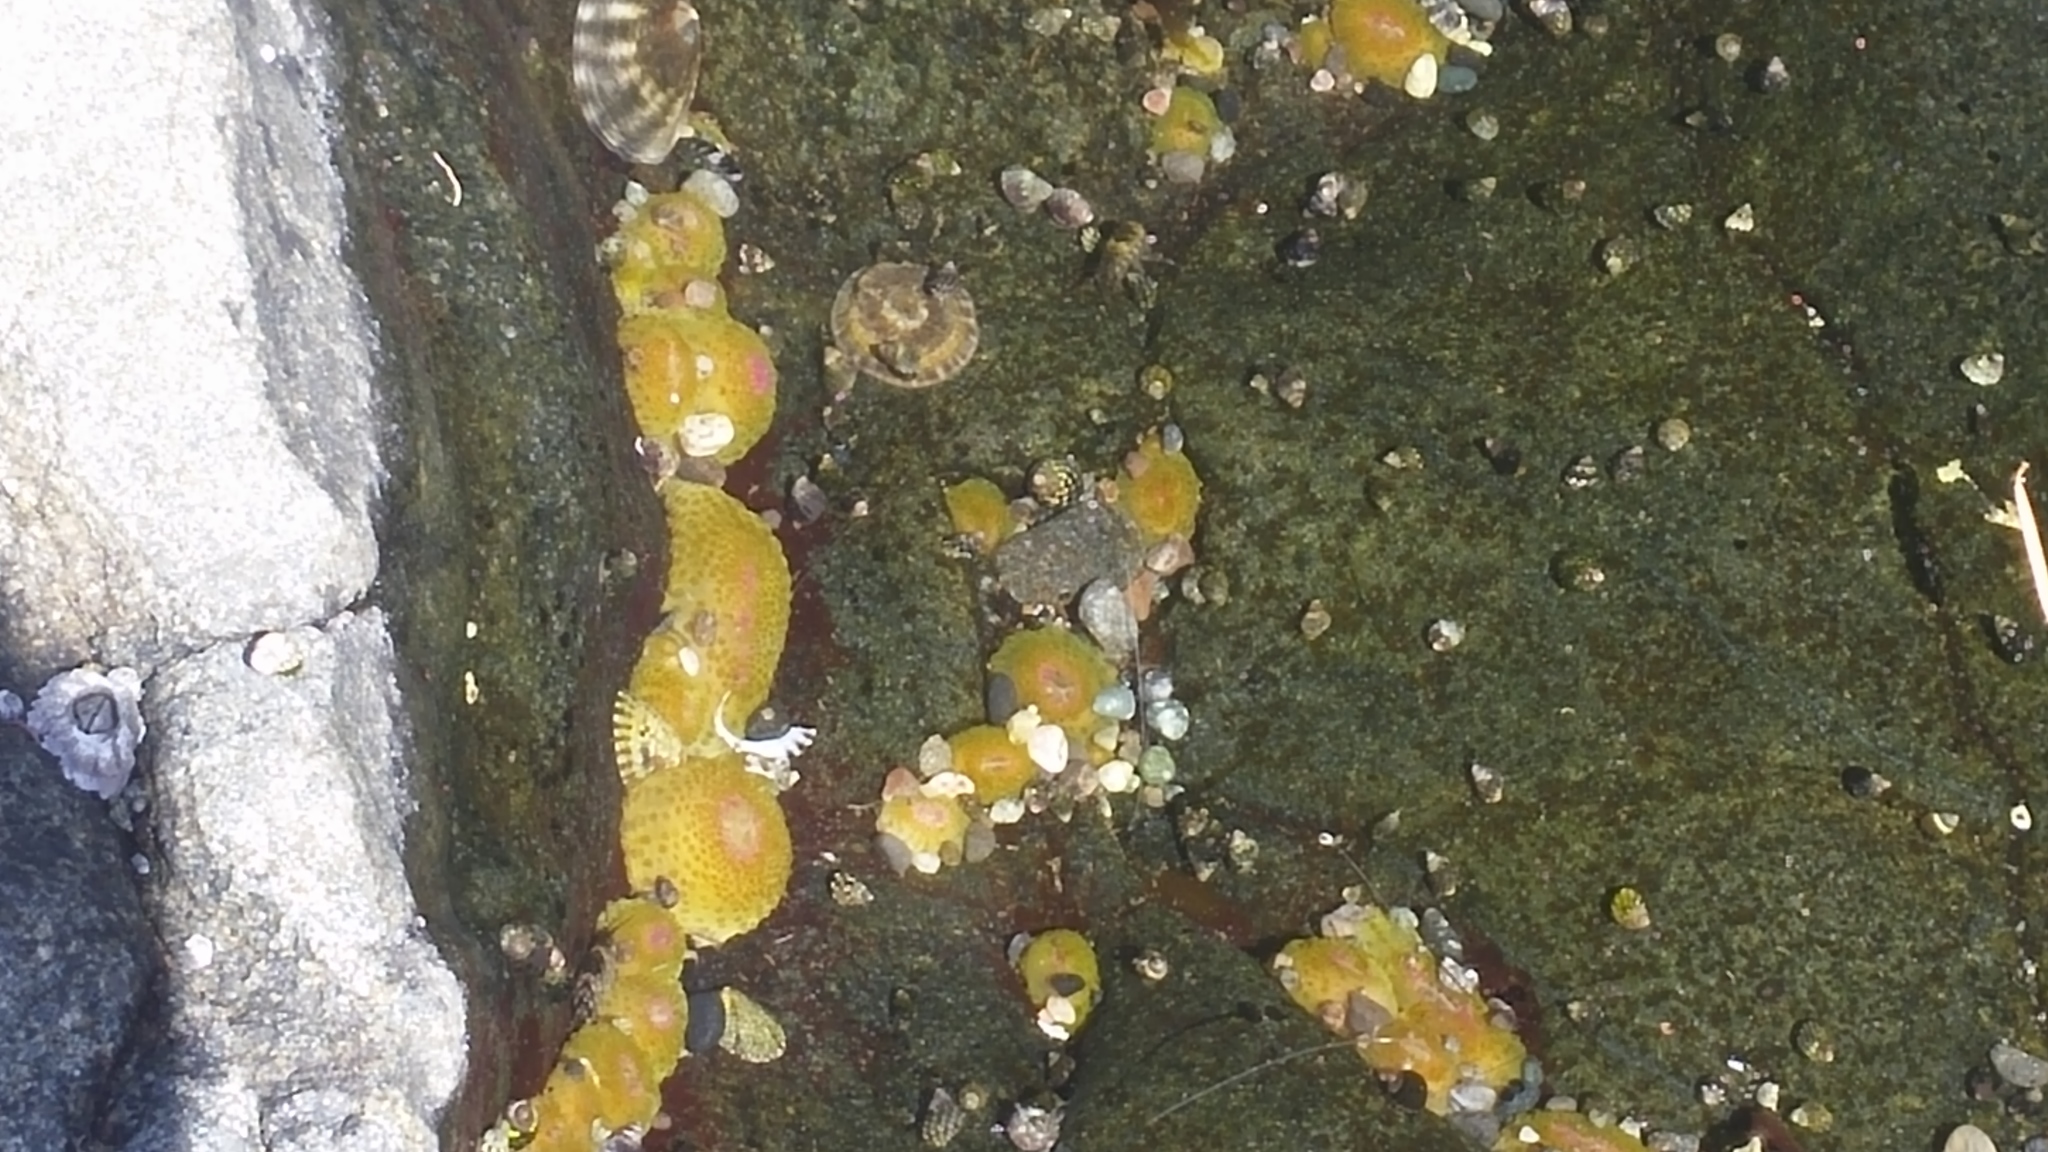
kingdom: Animalia
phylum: Cnidaria
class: Anthozoa
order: Actiniaria
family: Actiniidae
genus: Anthopleura
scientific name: Anthopleura elegantissima
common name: Clonal anemone
